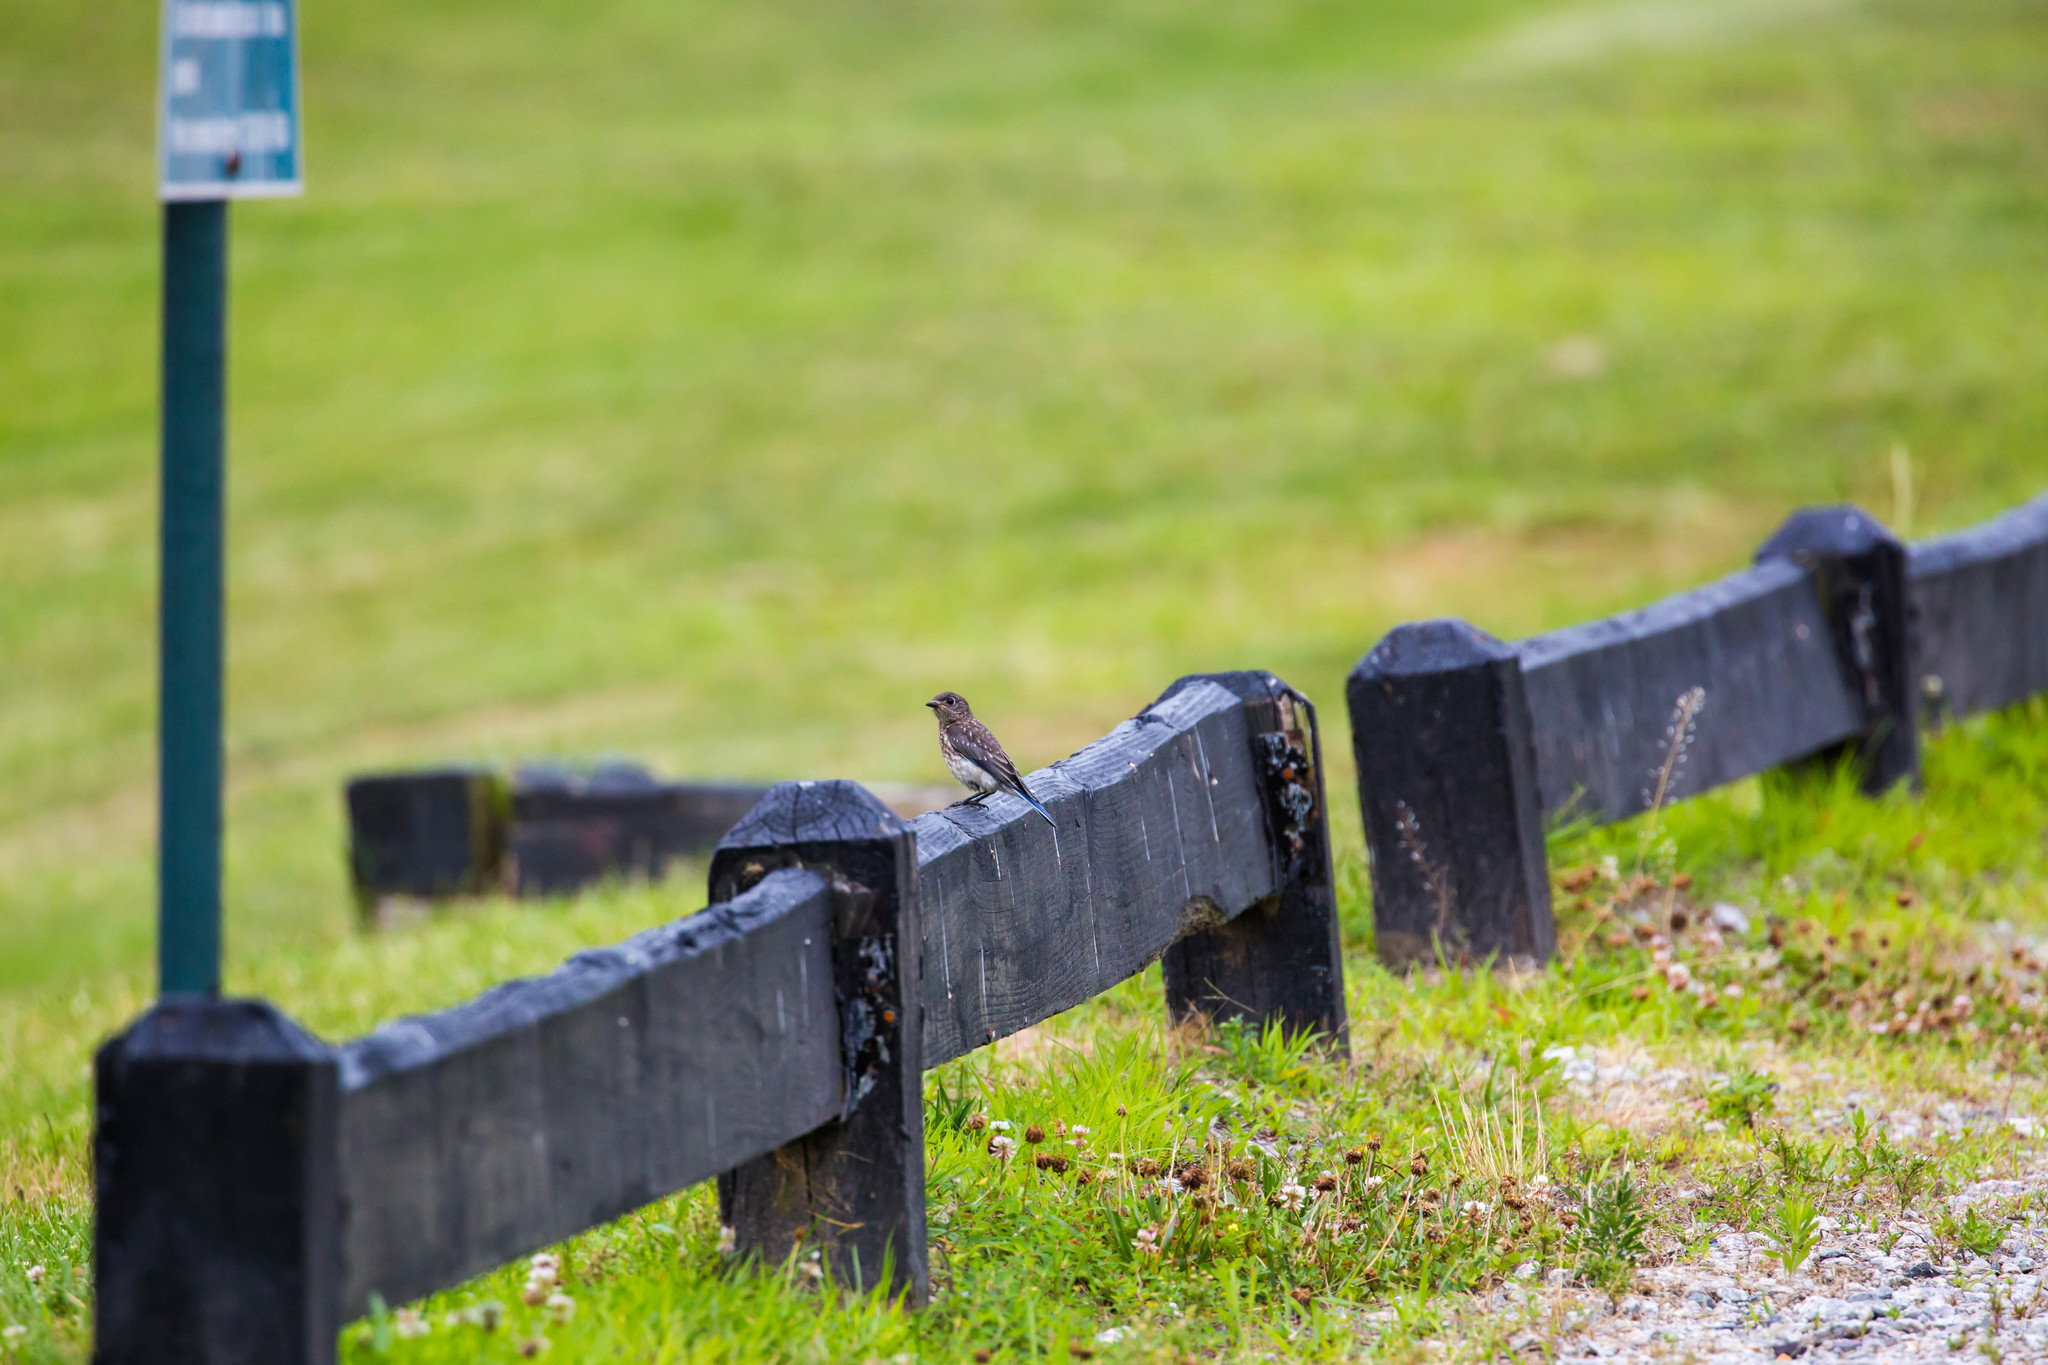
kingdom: Animalia
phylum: Chordata
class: Aves
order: Passeriformes
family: Turdidae
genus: Sialia
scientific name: Sialia sialis
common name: Eastern bluebird
